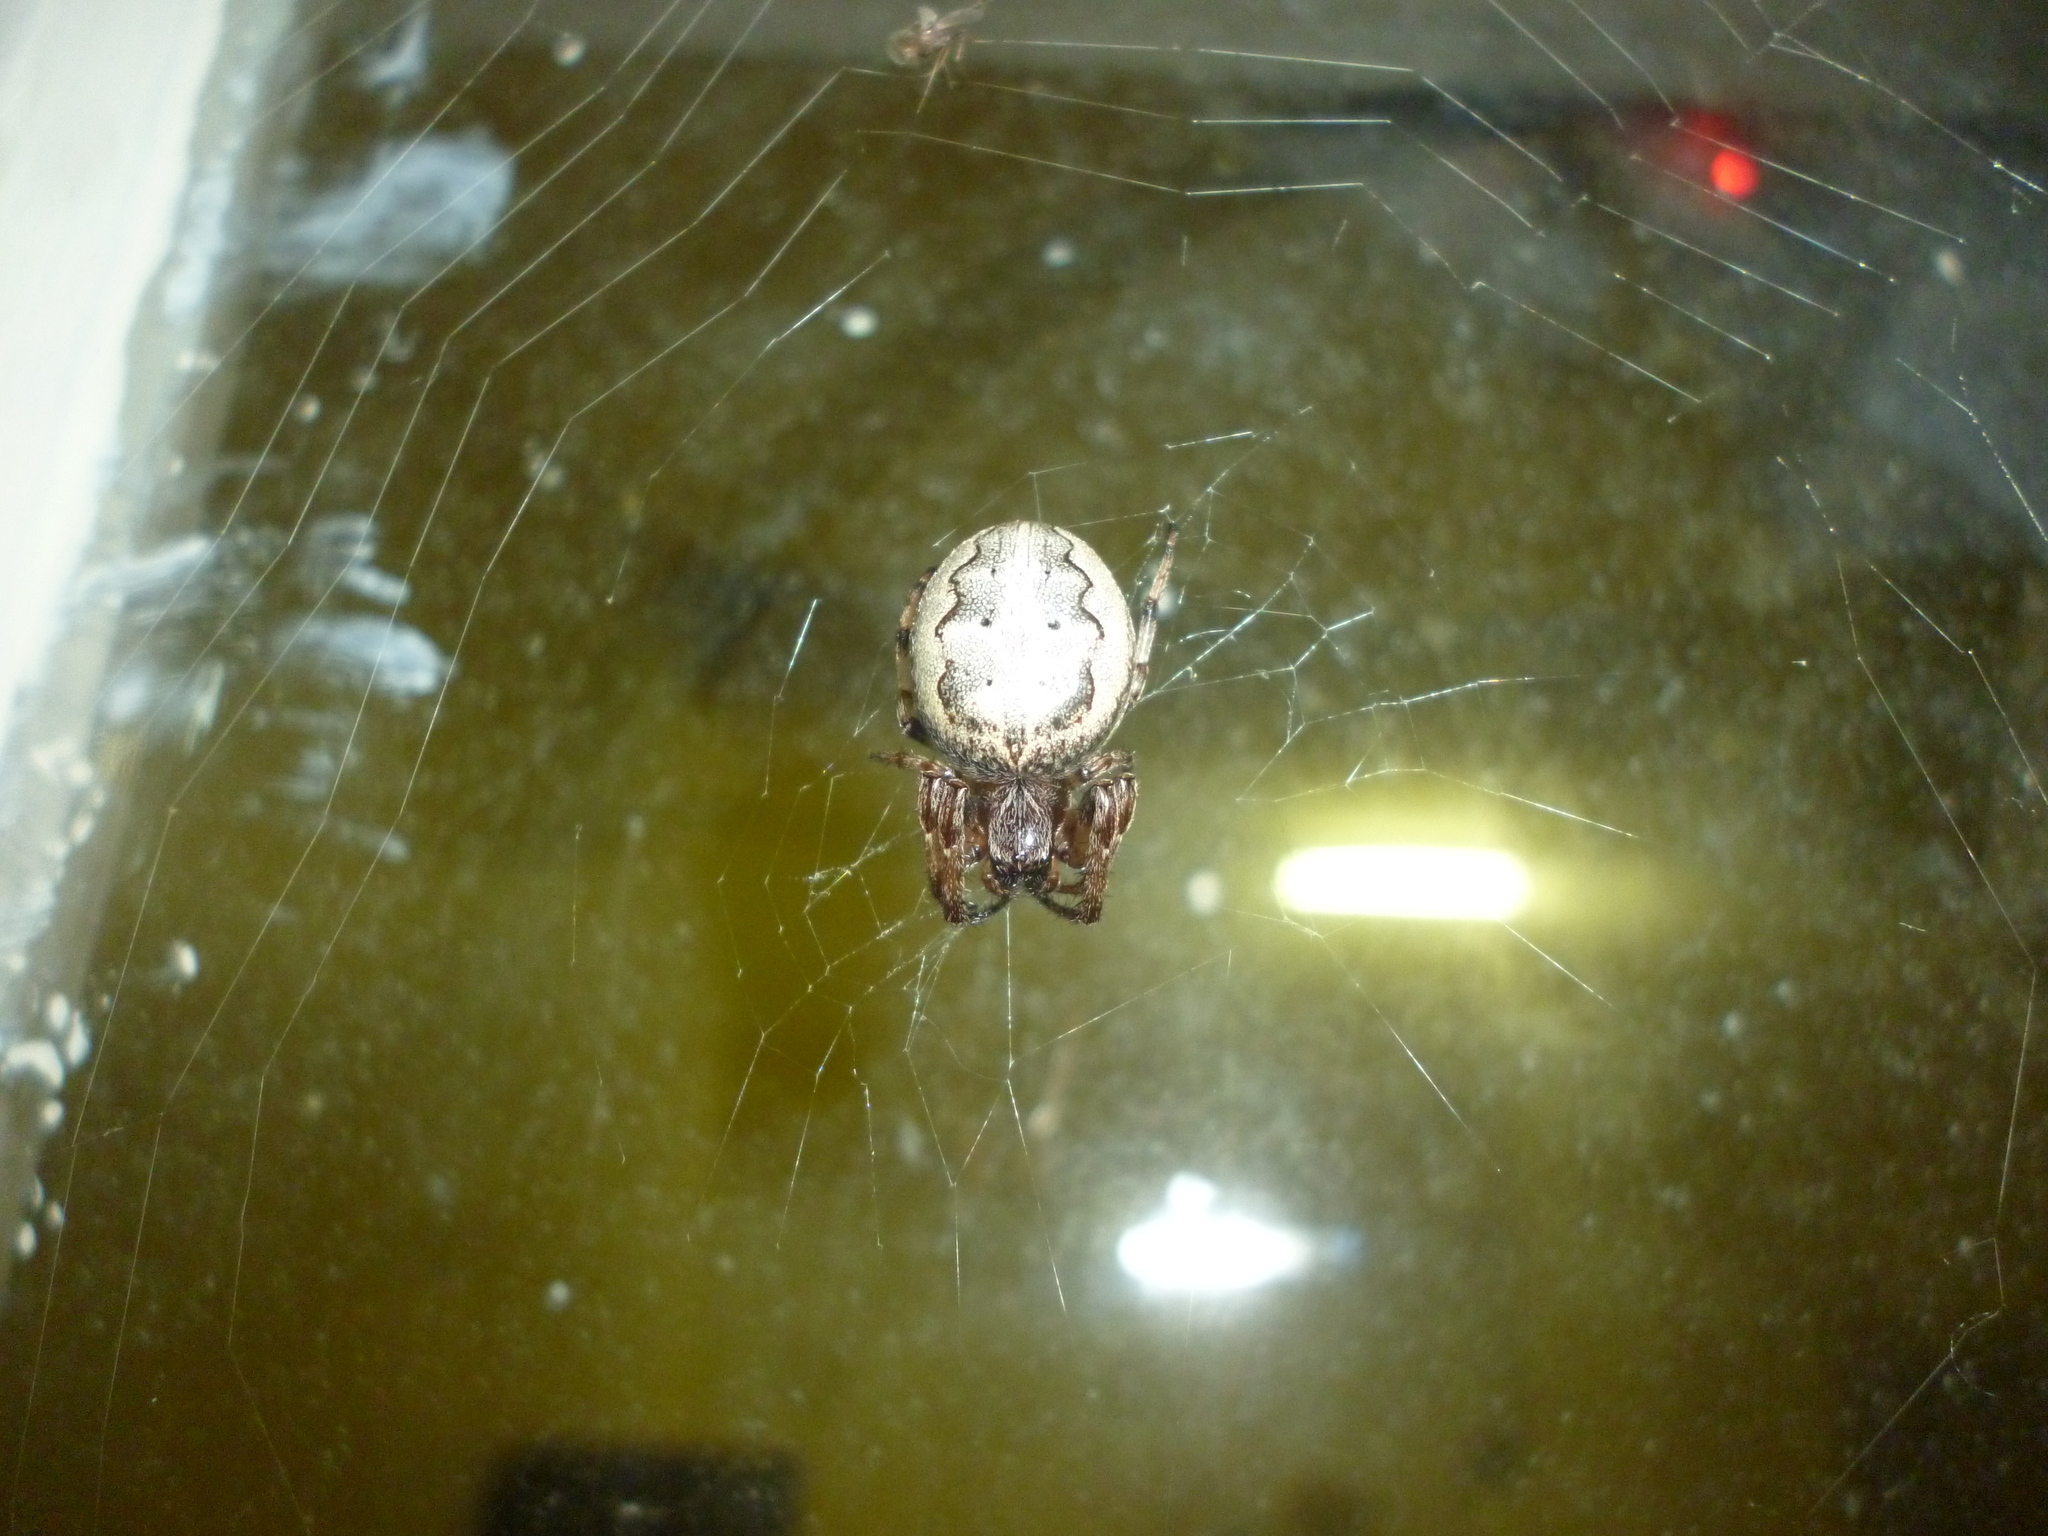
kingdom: Animalia
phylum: Arthropoda
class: Arachnida
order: Araneae
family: Araneidae
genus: Larinioides
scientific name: Larinioides cornutus
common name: Furrow orbweaver
